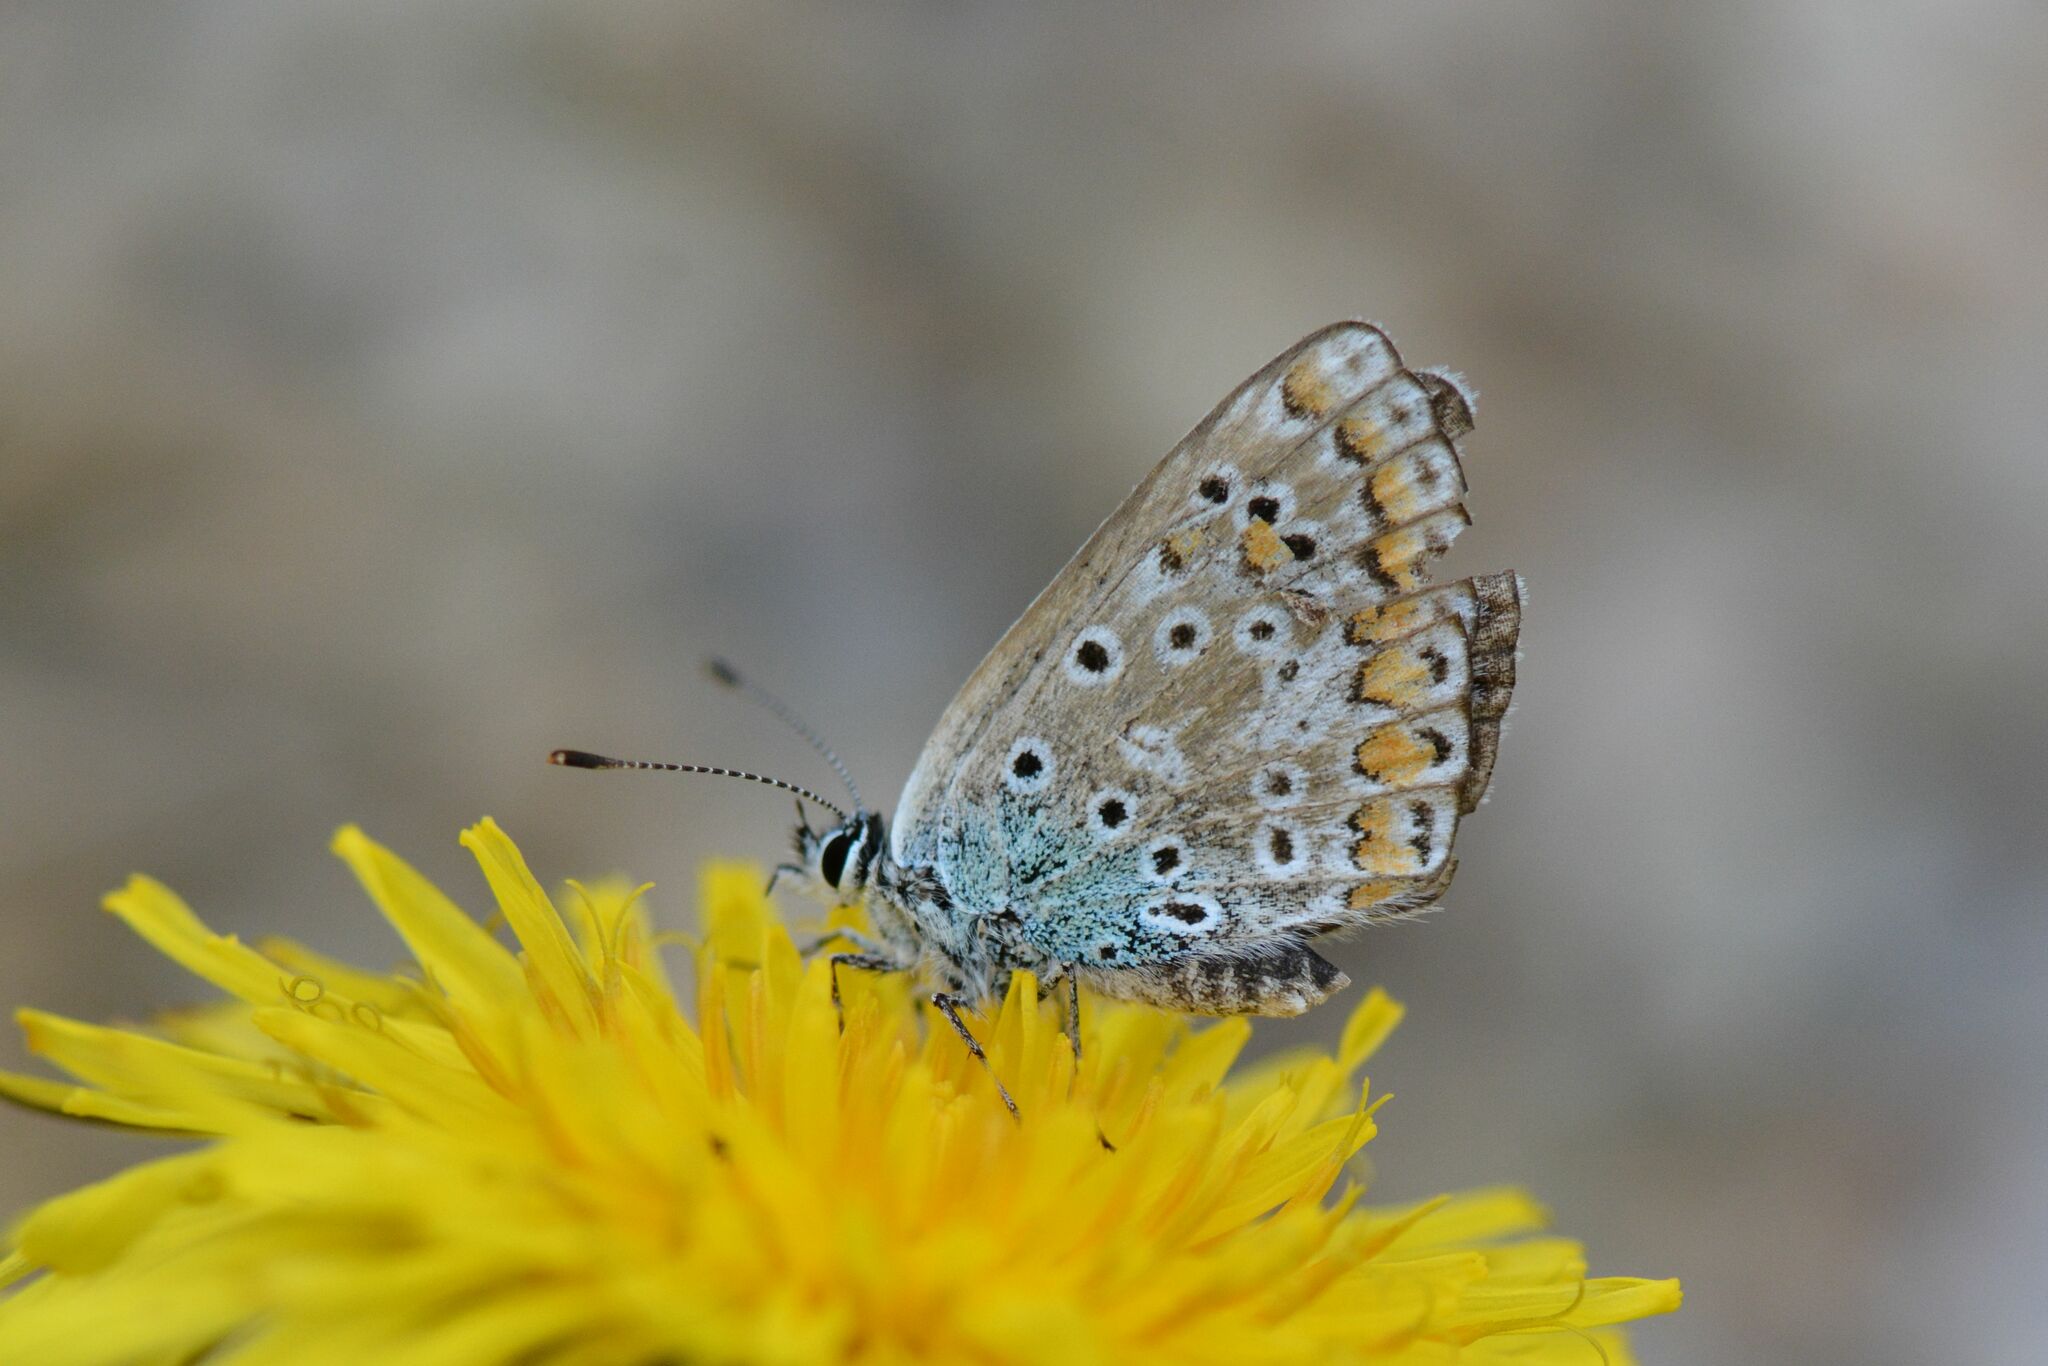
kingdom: Animalia
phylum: Arthropoda
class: Insecta
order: Lepidoptera
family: Lycaenidae
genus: Polyommatus
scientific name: Polyommatus icarus
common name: Common blue
